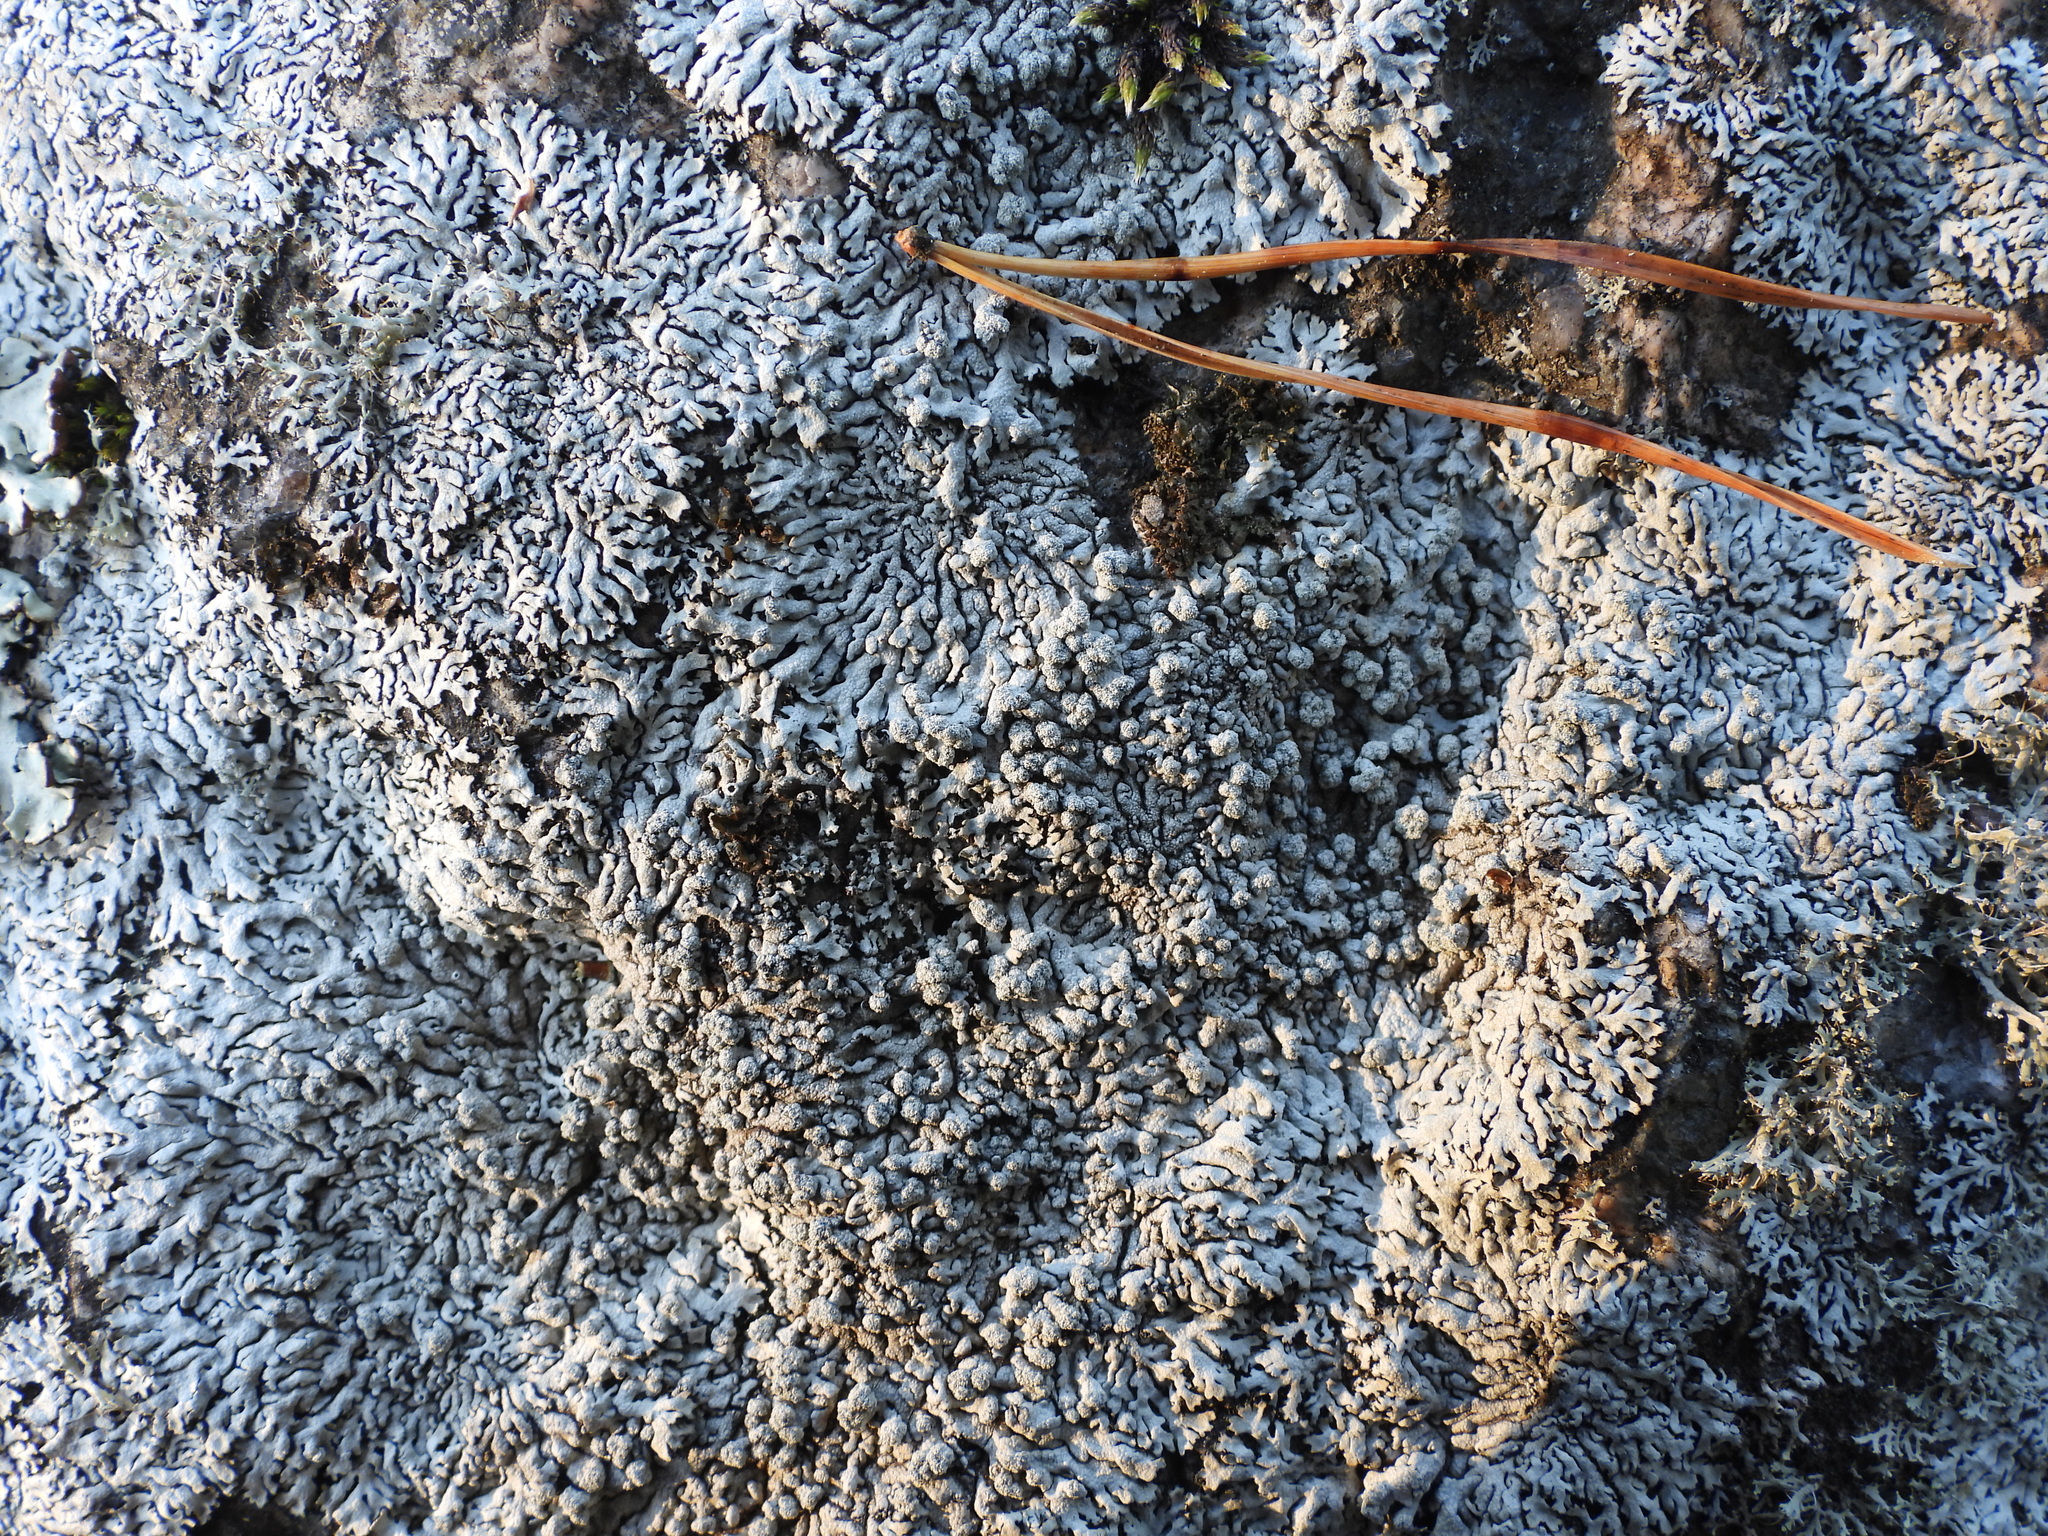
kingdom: Fungi
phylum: Ascomycota
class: Lecanoromycetes
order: Caliciales
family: Physciaceae
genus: Physcia
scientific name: Physcia caesia
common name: Blue-gray rosette lichen
